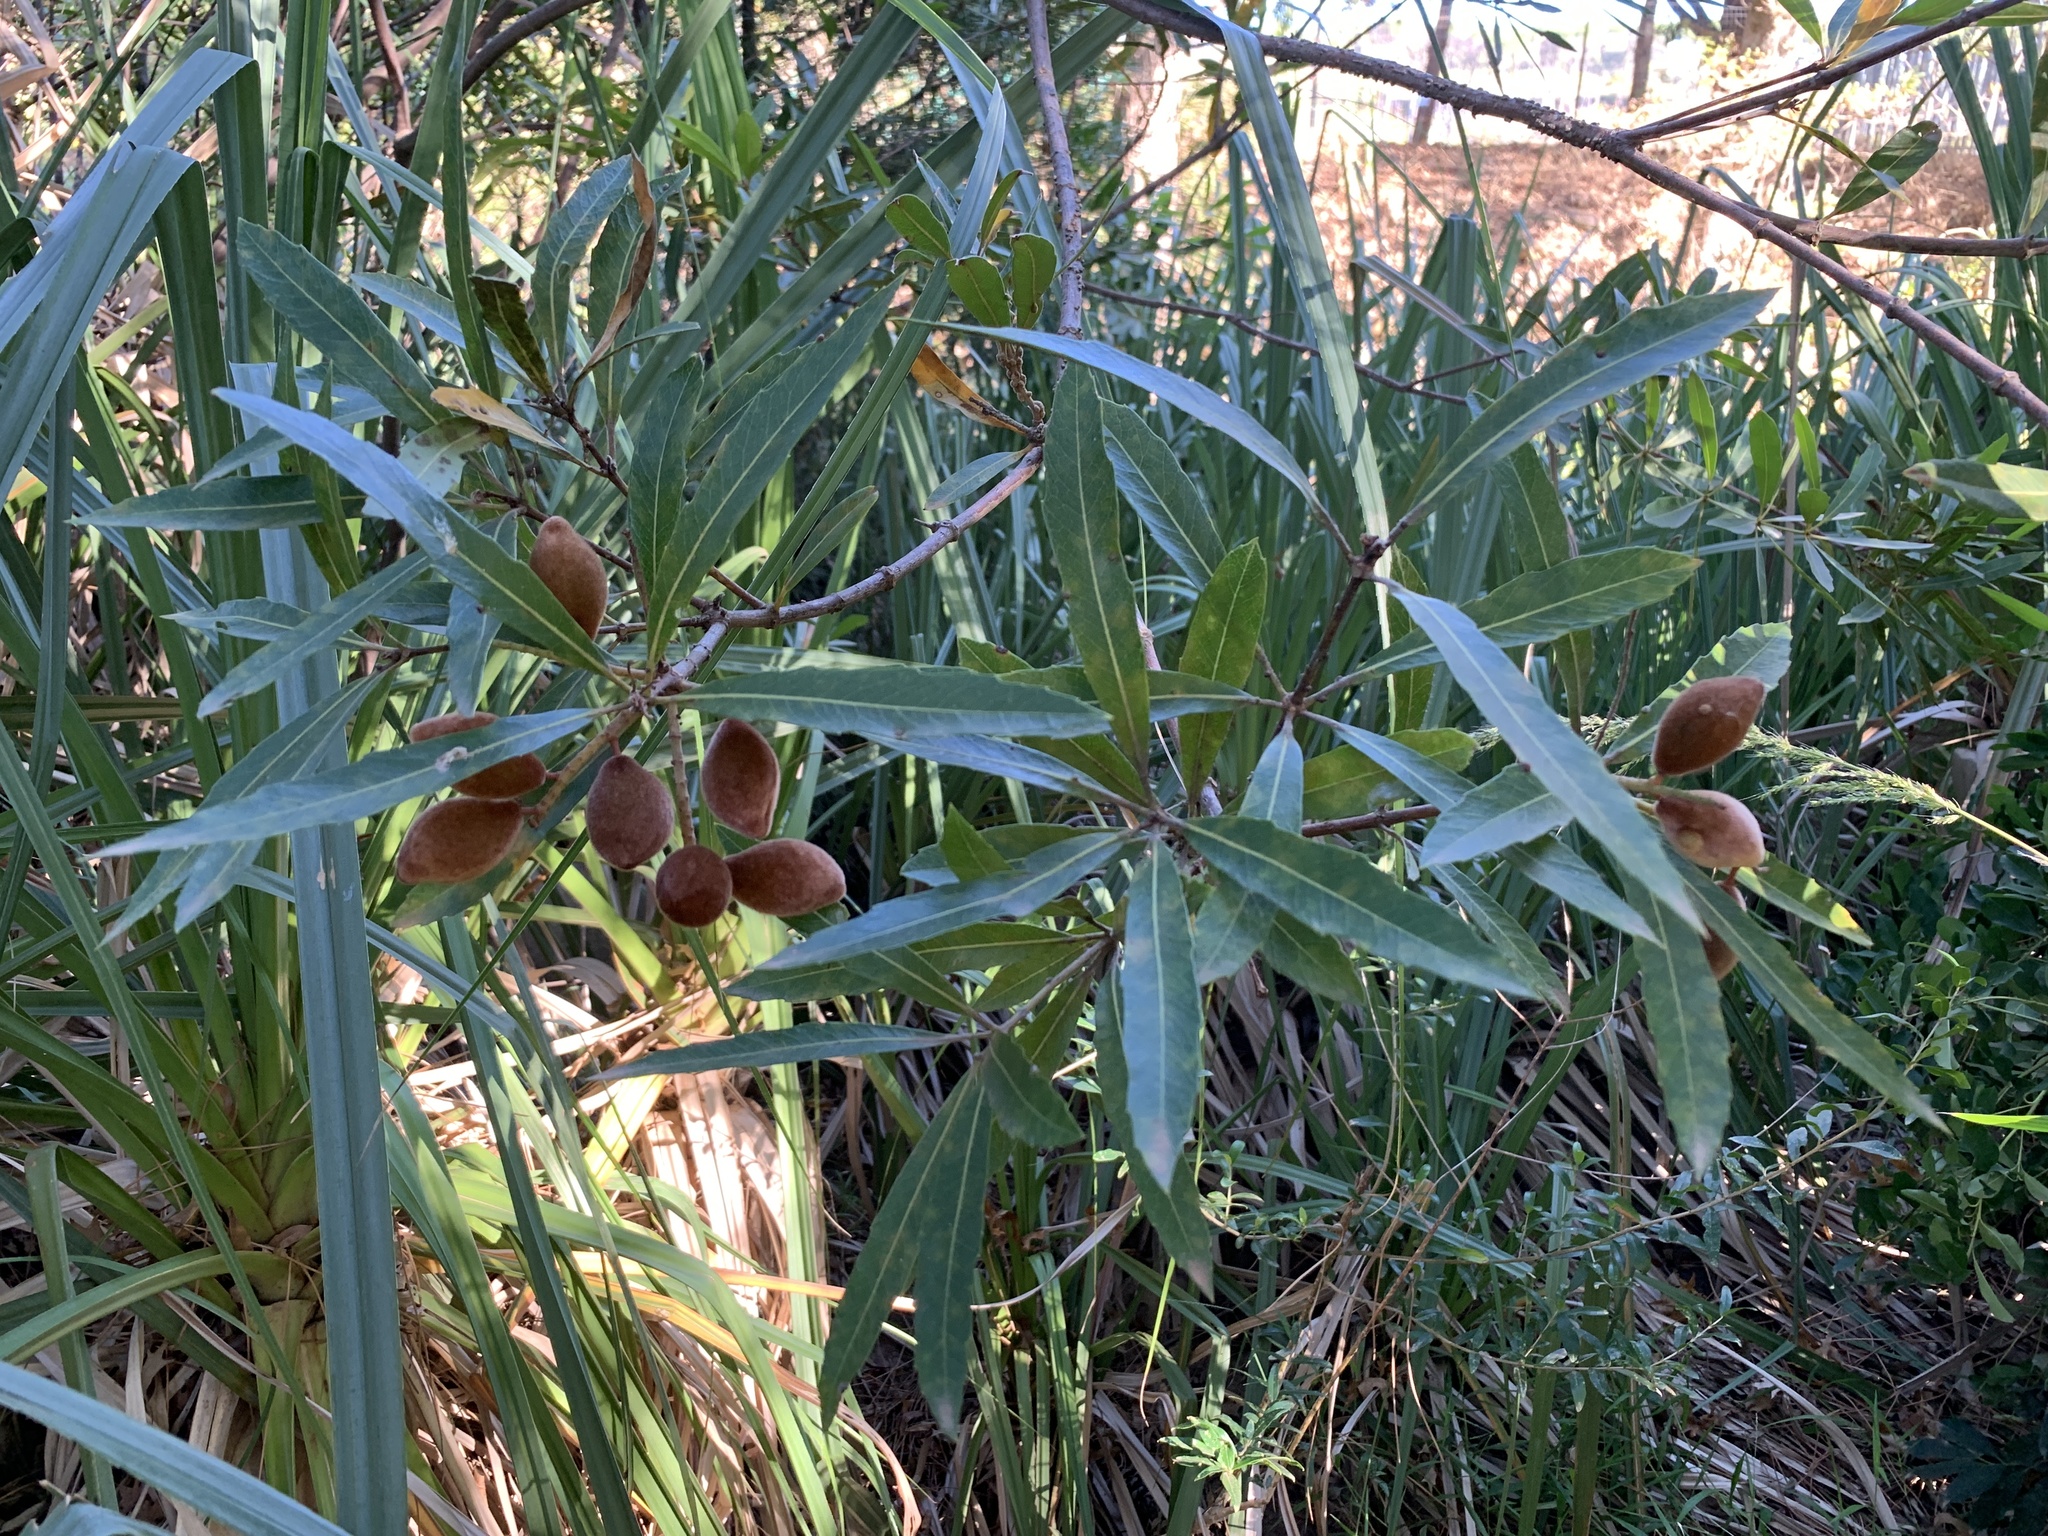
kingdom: Plantae
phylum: Tracheophyta
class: Magnoliopsida
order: Proteales
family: Proteaceae
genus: Brabejum
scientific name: Brabejum stellatifolium
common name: Wild almond
